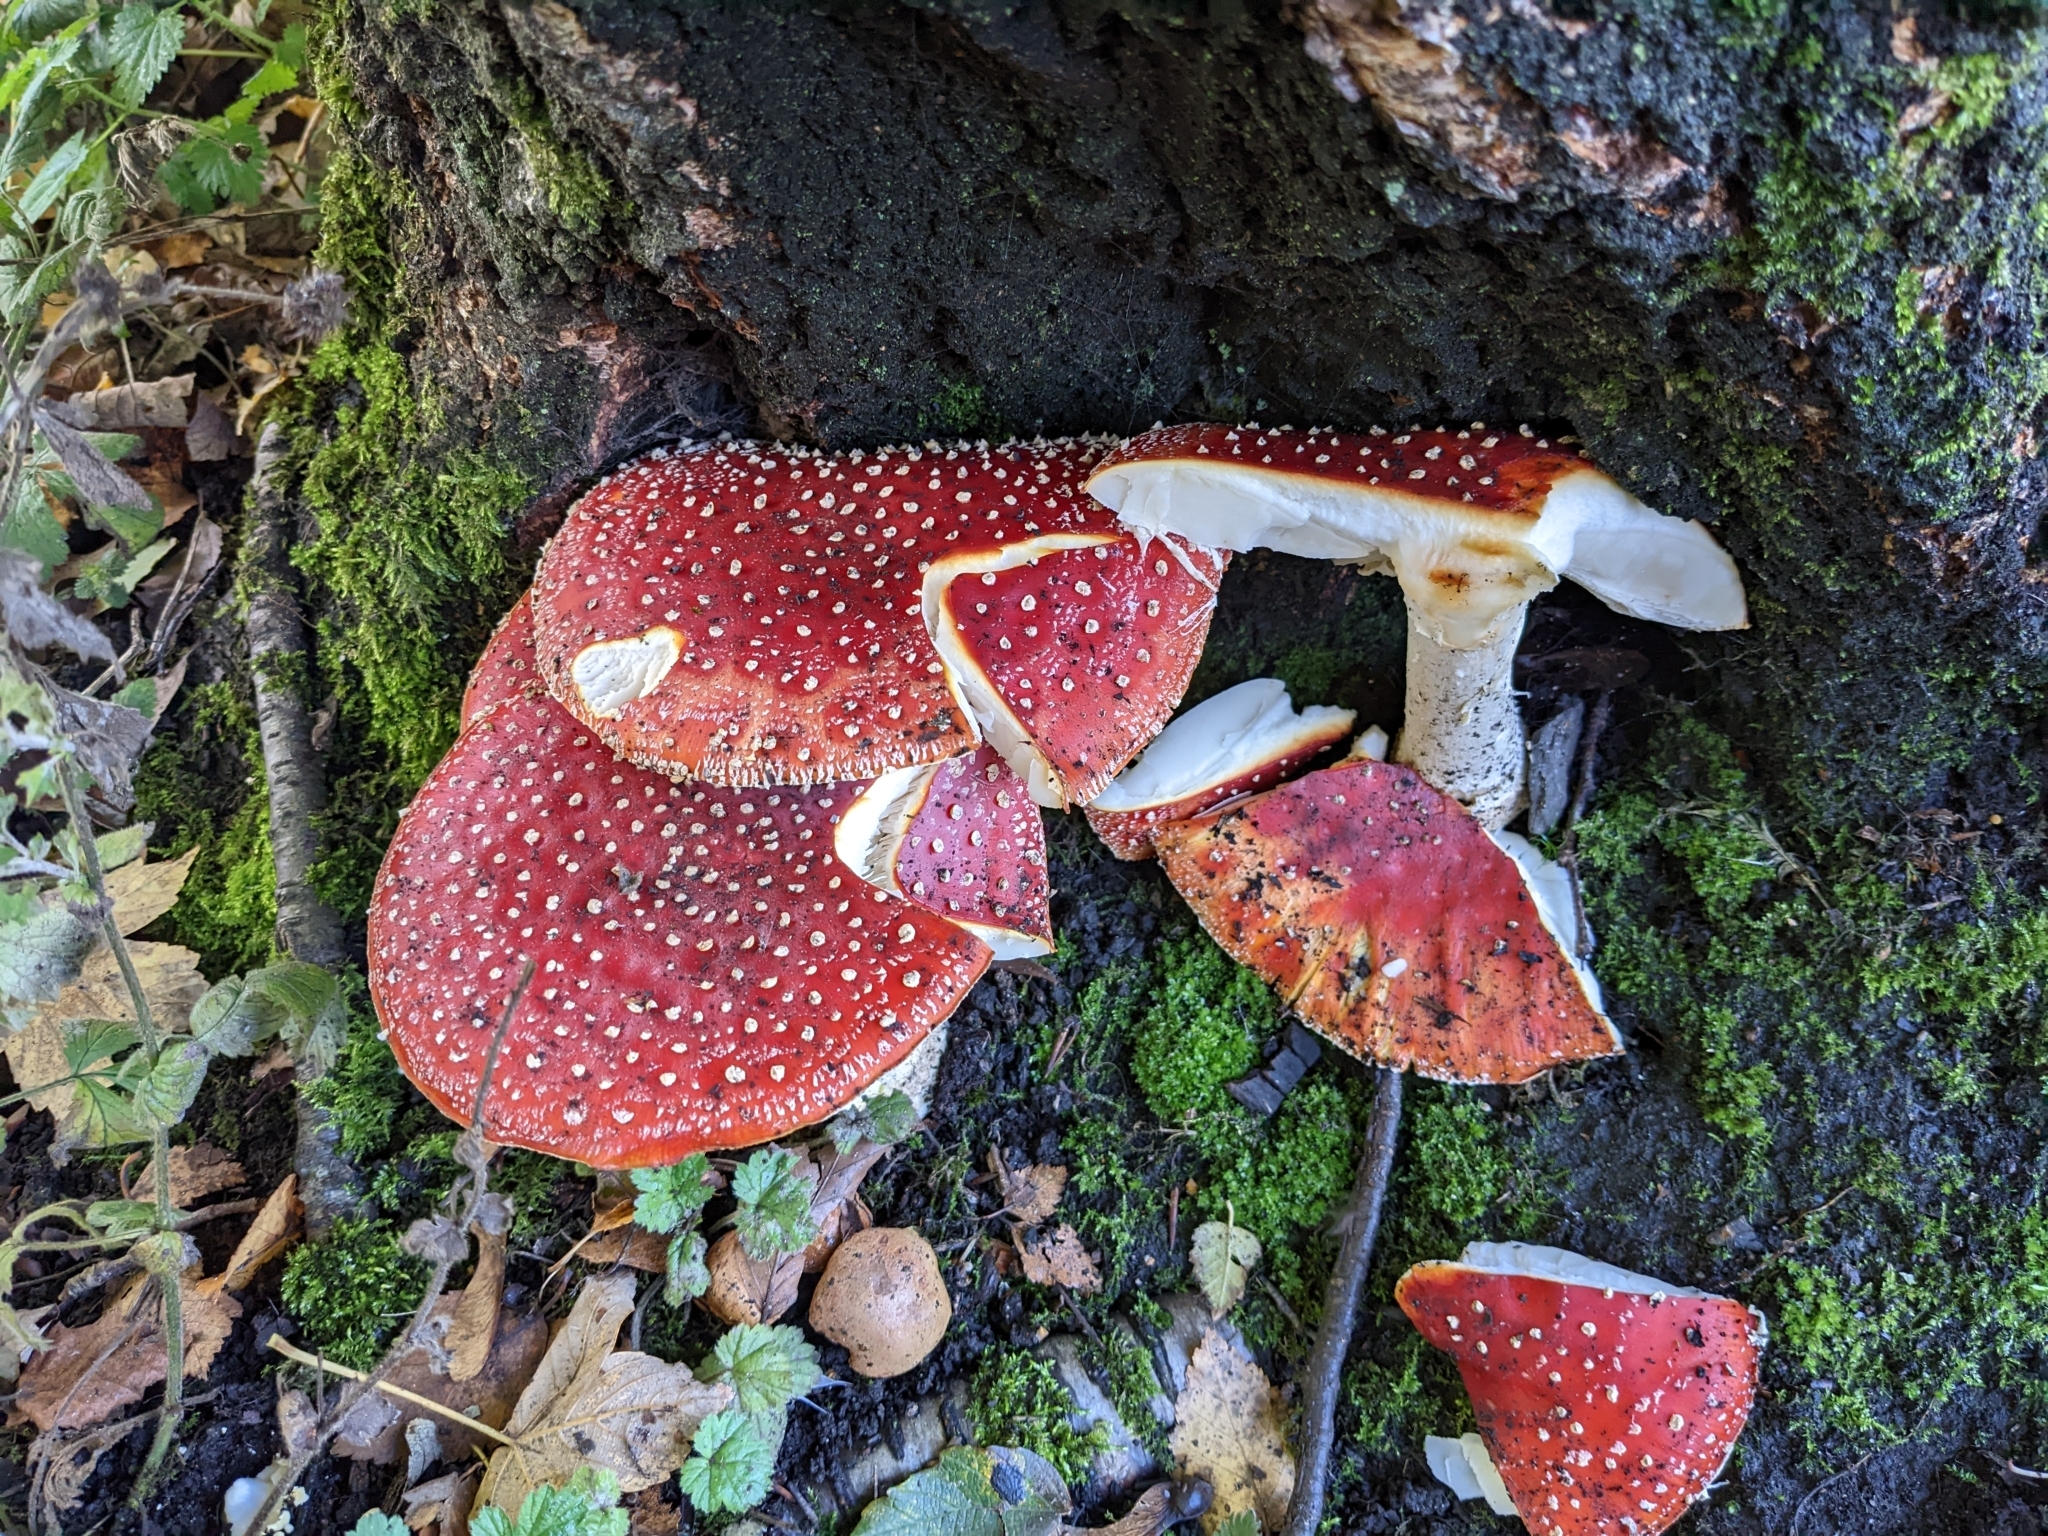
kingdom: Fungi
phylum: Basidiomycota
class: Agaricomycetes
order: Agaricales
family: Amanitaceae
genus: Amanita
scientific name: Amanita muscaria
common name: Fly agaric
